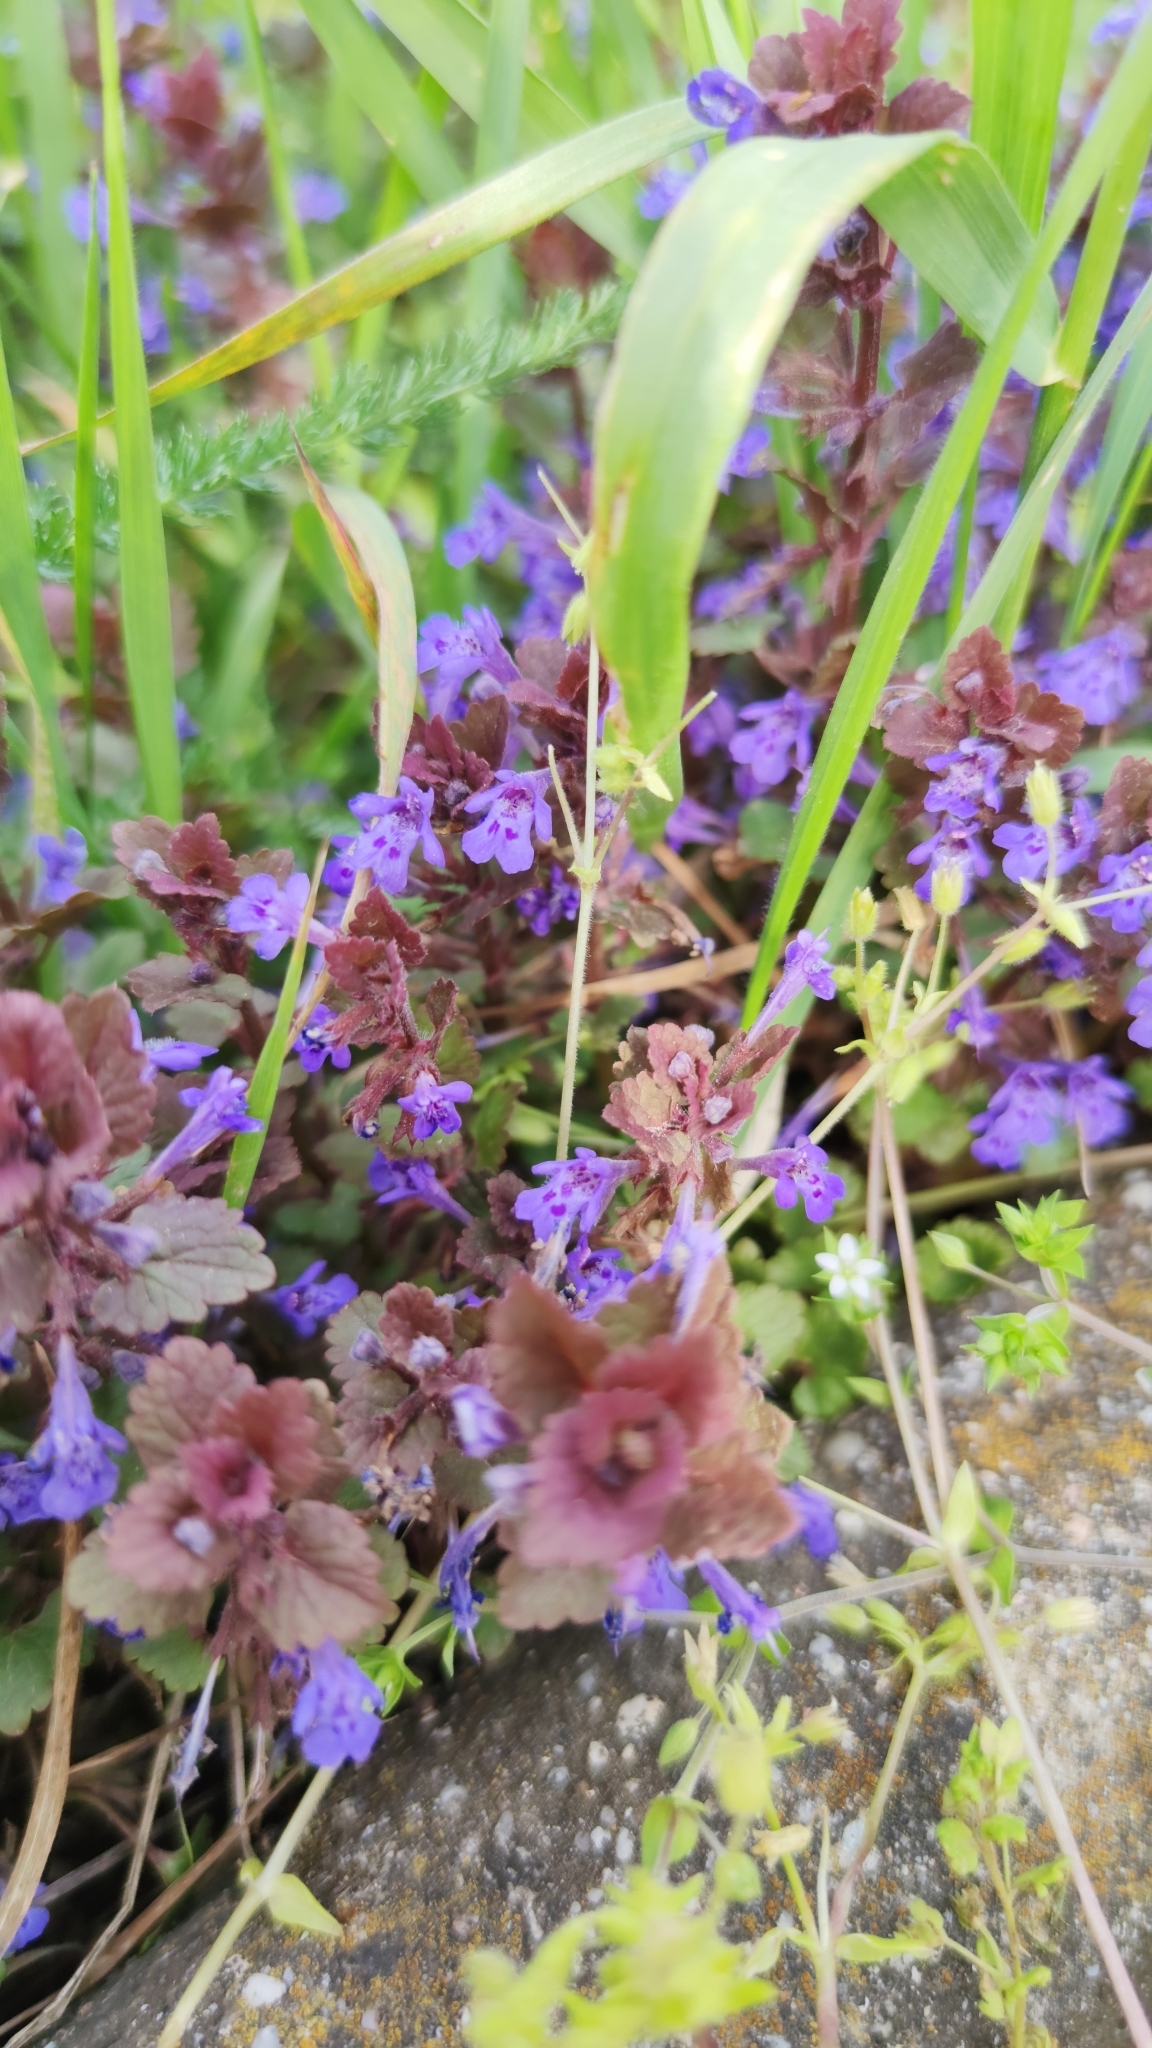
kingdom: Plantae
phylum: Tracheophyta
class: Magnoliopsida
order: Lamiales
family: Lamiaceae
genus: Glechoma
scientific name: Glechoma hederacea
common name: Ground ivy
